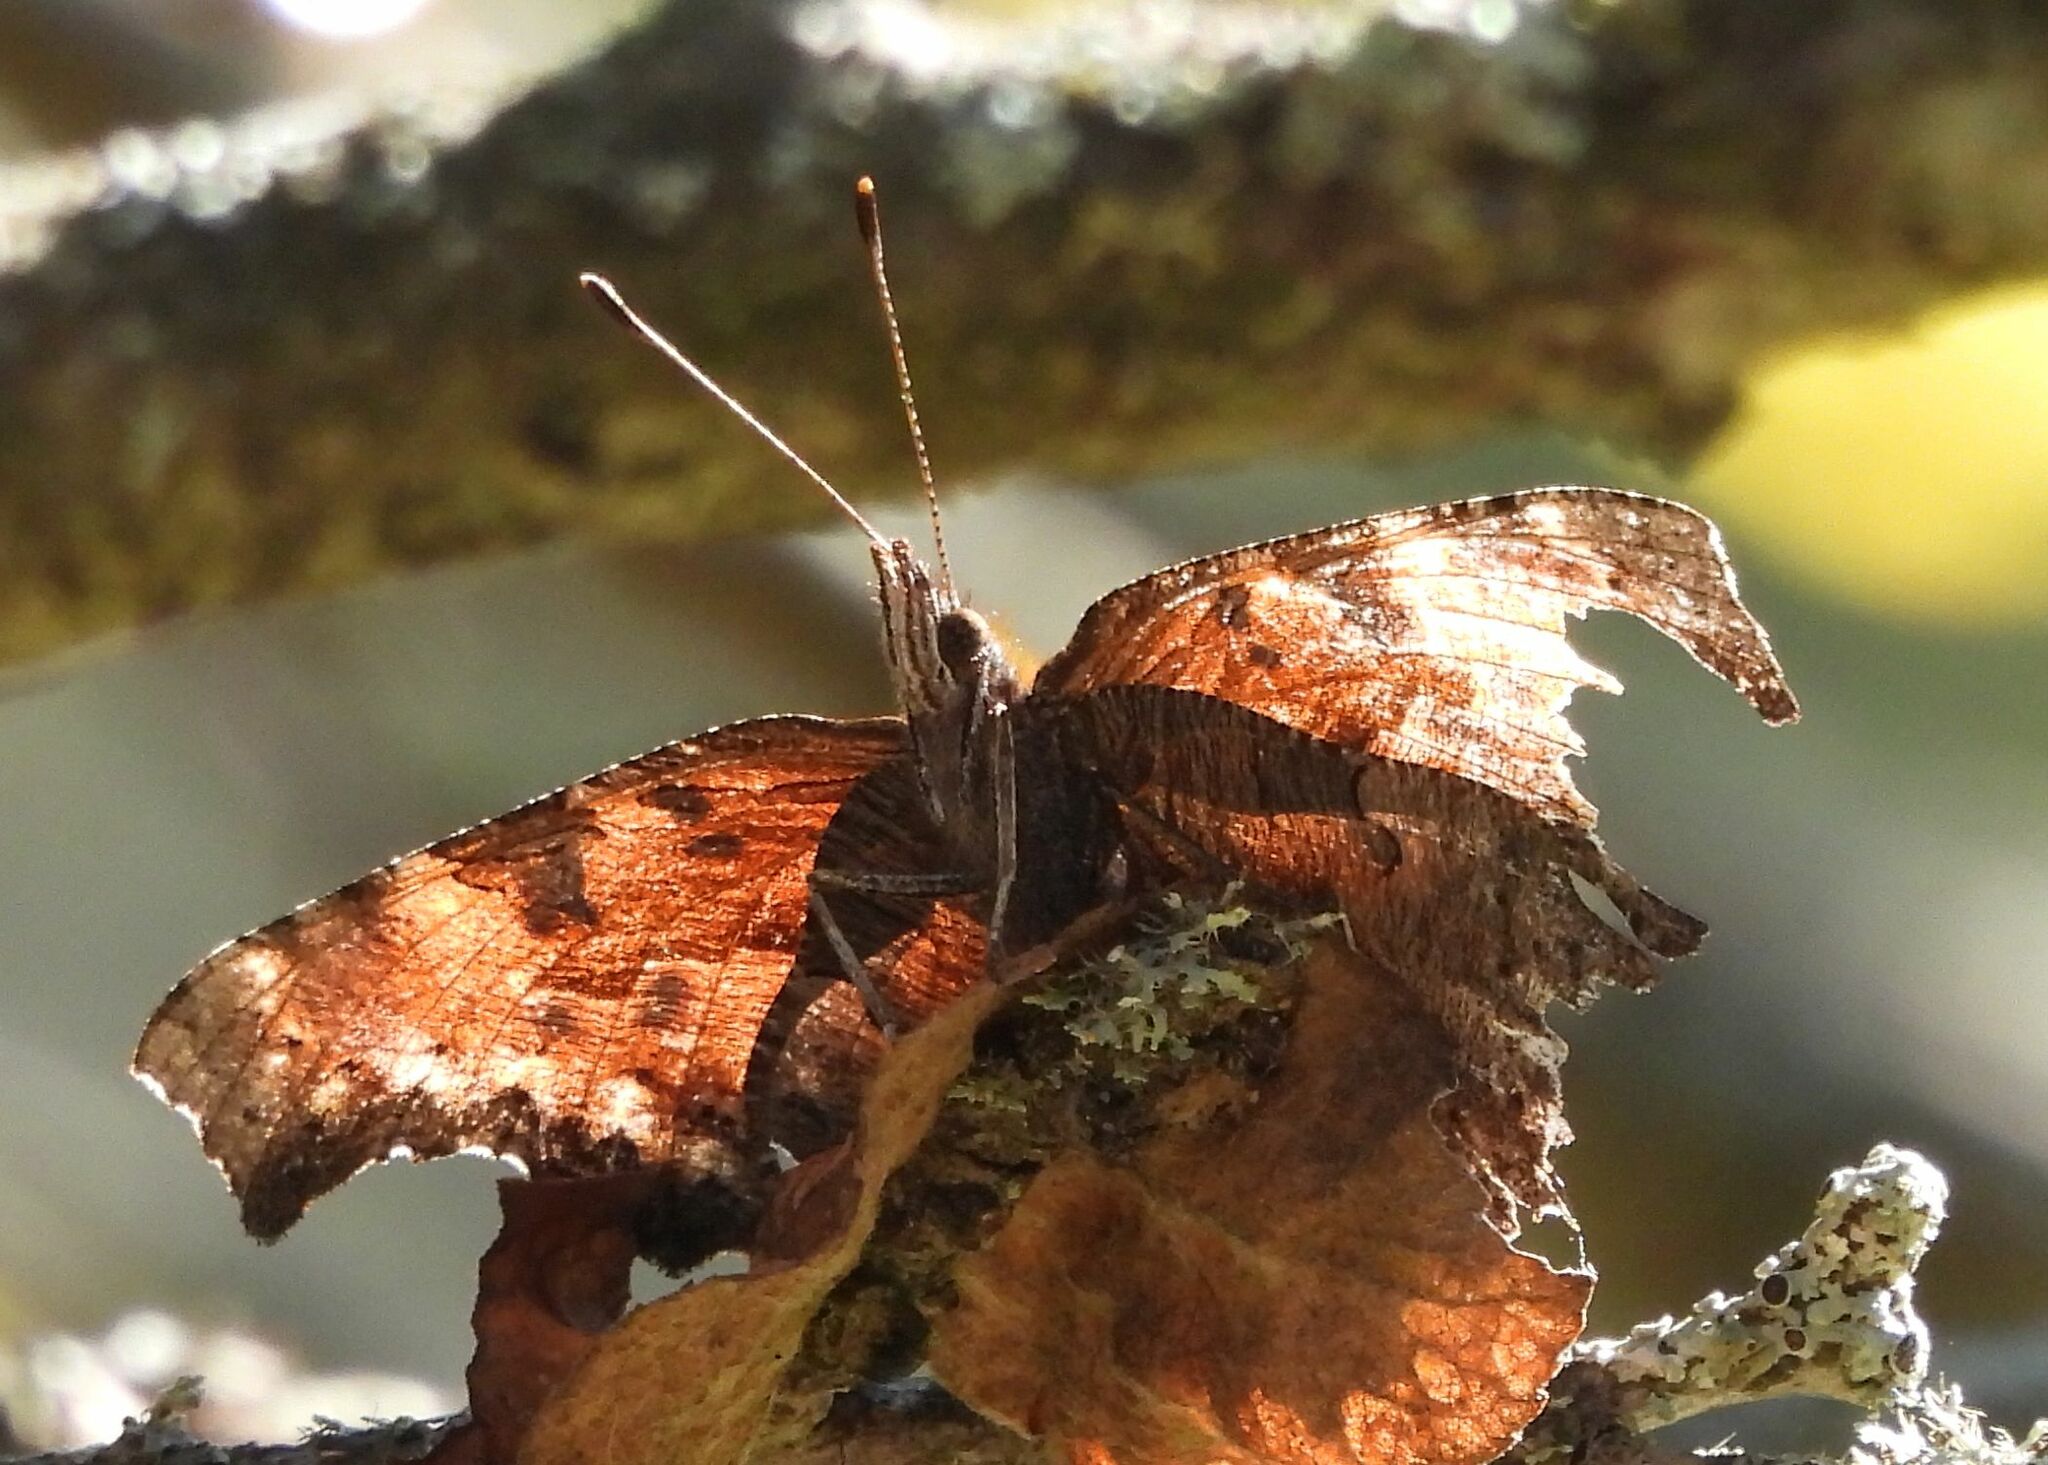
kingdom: Animalia
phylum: Arthropoda
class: Insecta
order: Lepidoptera
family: Nymphalidae
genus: Polygonia
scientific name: Polygonia progne
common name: Gray comma
